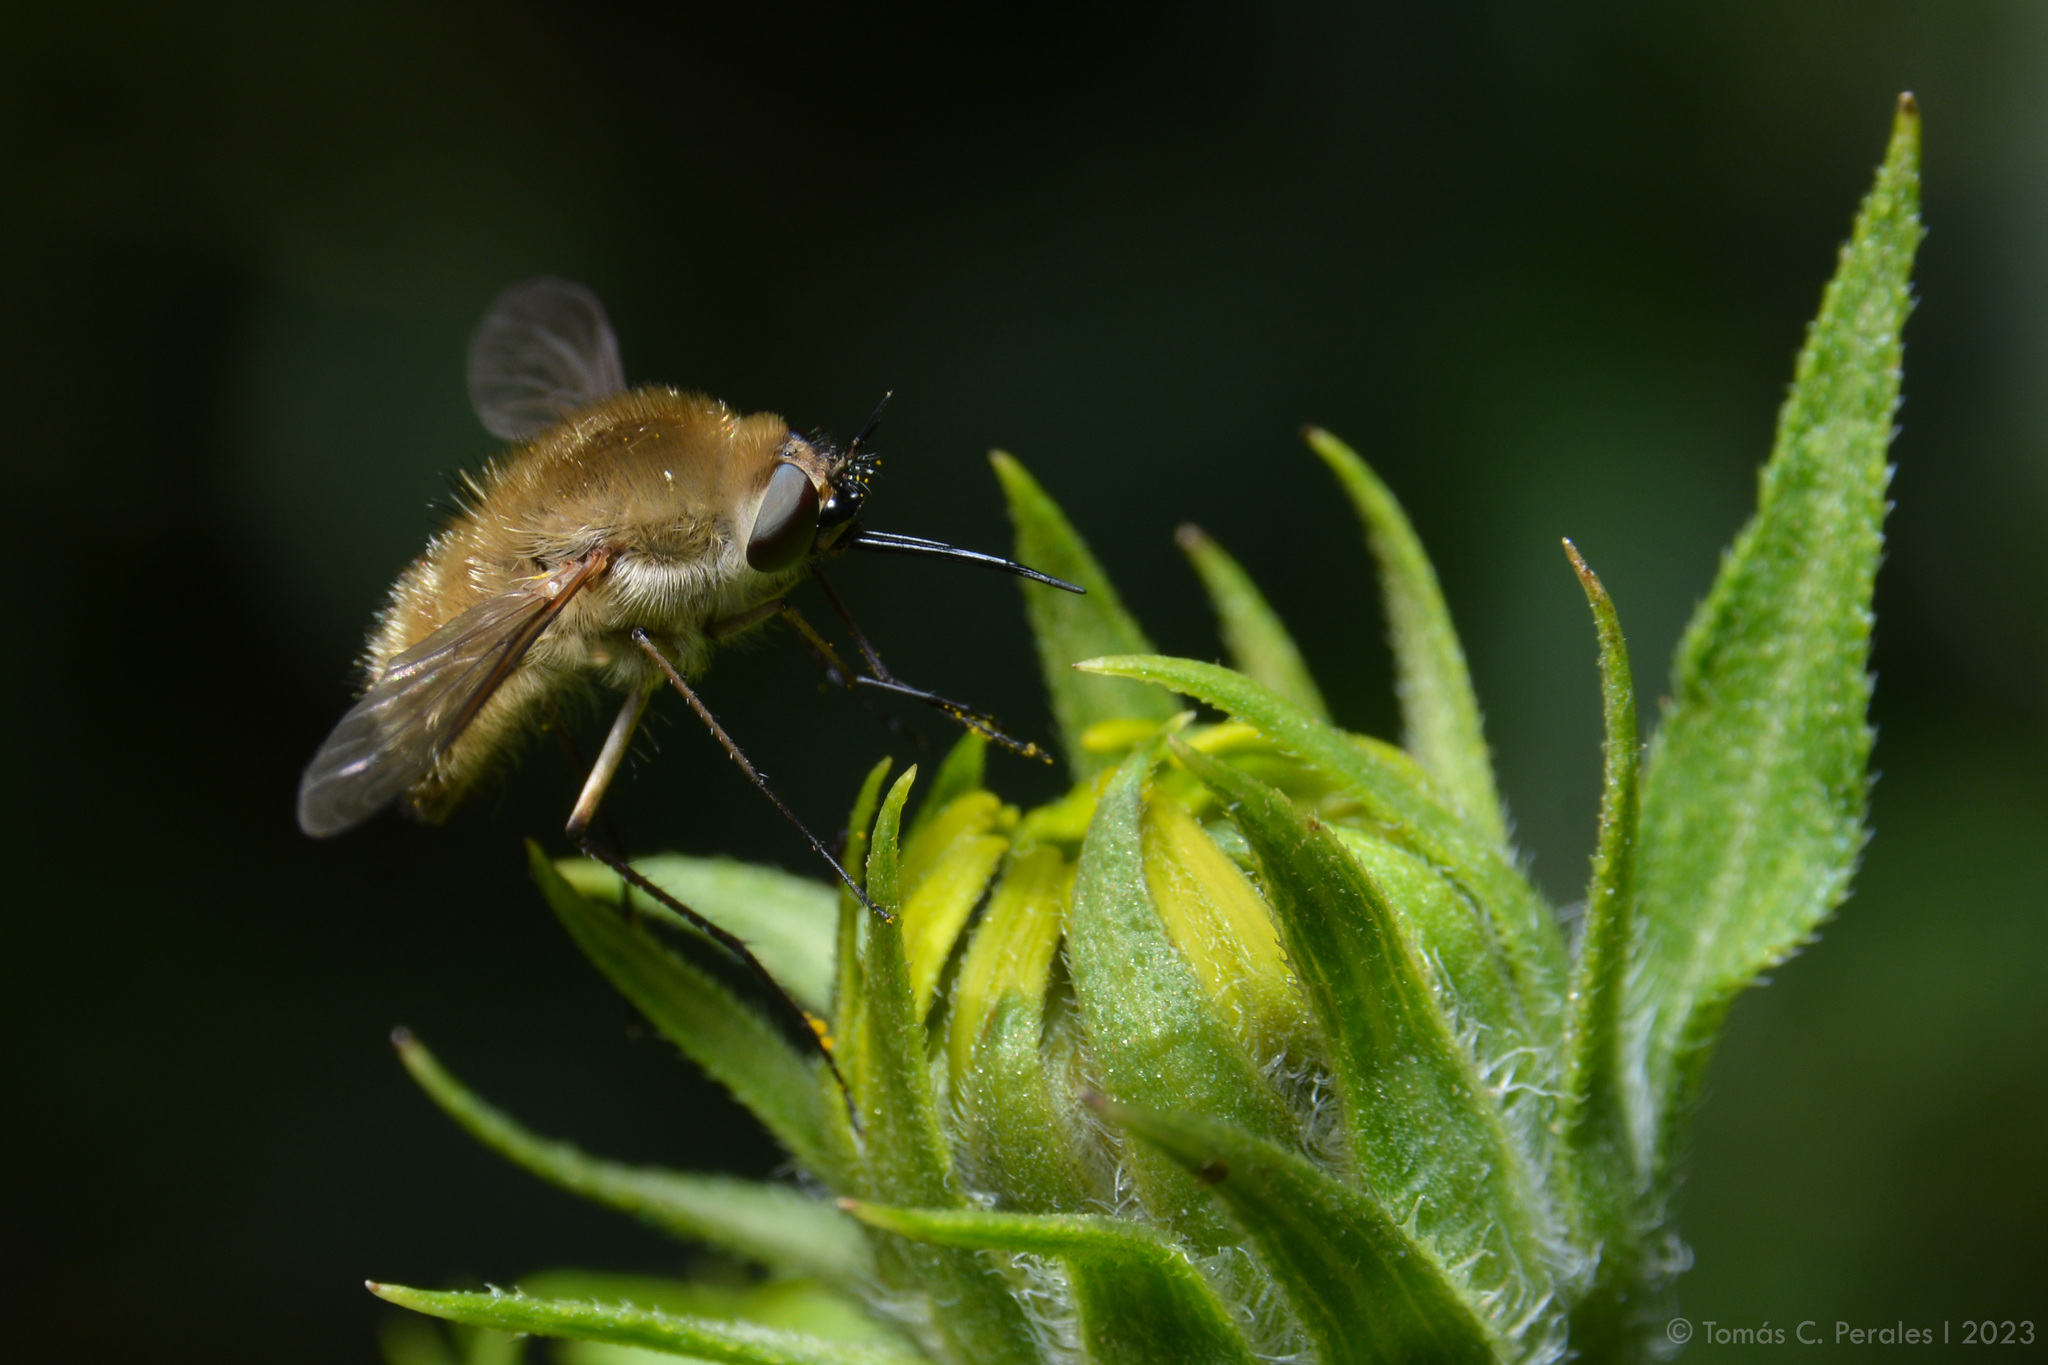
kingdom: Animalia
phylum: Arthropoda
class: Insecta
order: Diptera
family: Bombyliidae
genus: Euprepina
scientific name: Euprepina nuda
